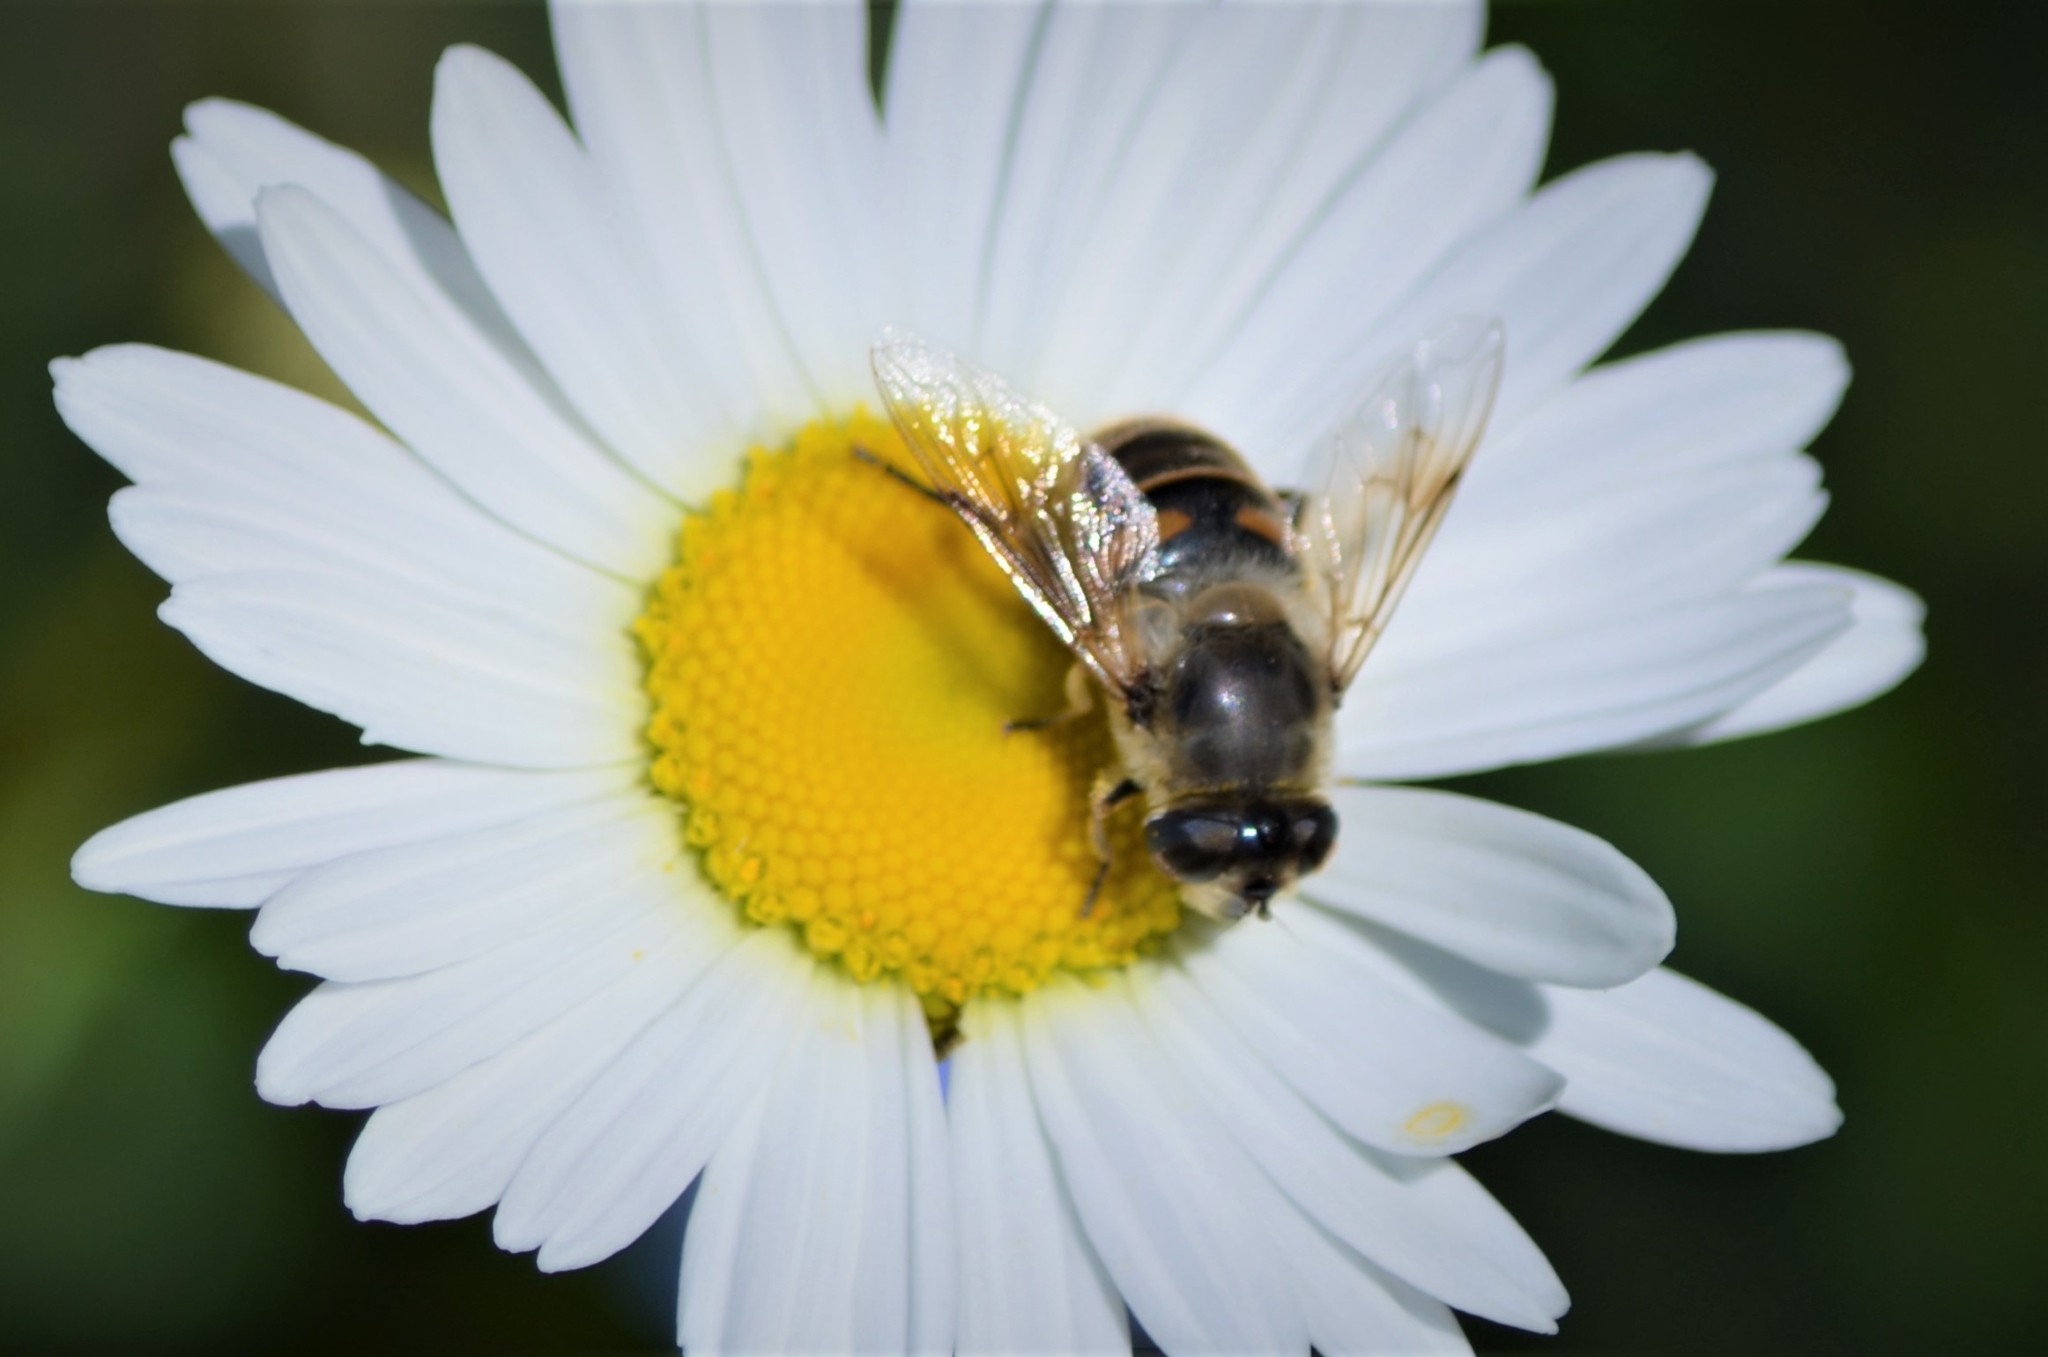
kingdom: Animalia
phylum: Arthropoda
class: Insecta
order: Diptera
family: Syrphidae
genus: Eristalis
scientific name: Eristalis tenax
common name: Drone fly
